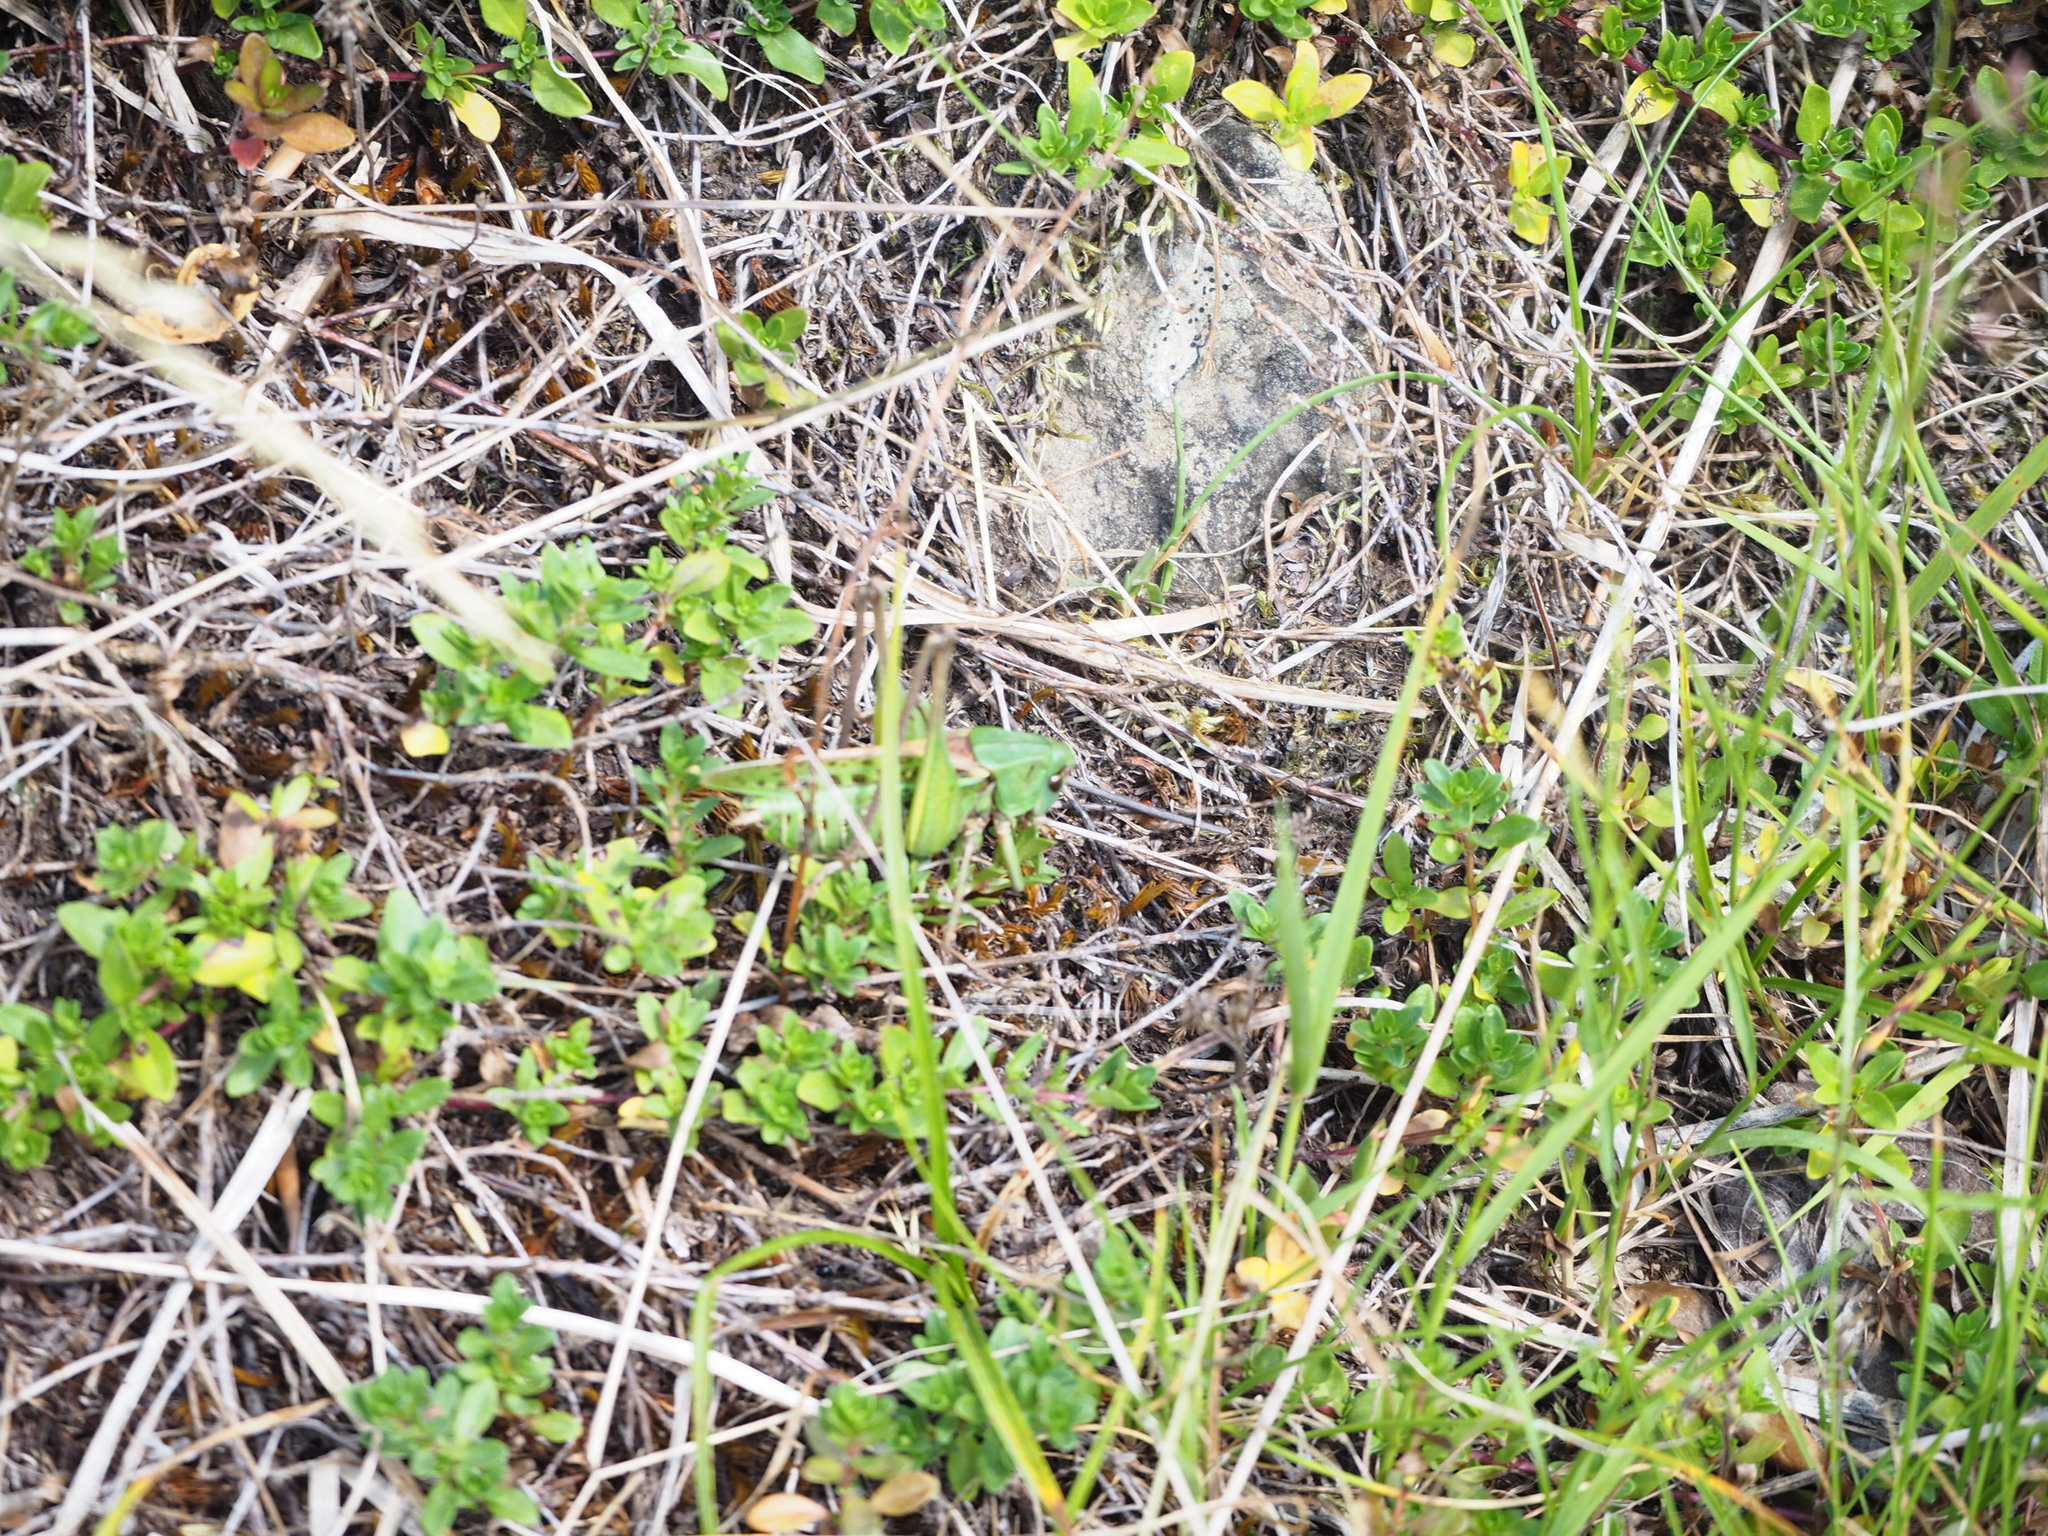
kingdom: Animalia
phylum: Arthropoda
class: Insecta
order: Orthoptera
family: Tettigoniidae
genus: Decticus
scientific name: Decticus verrucivorus
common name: Wart-biter
